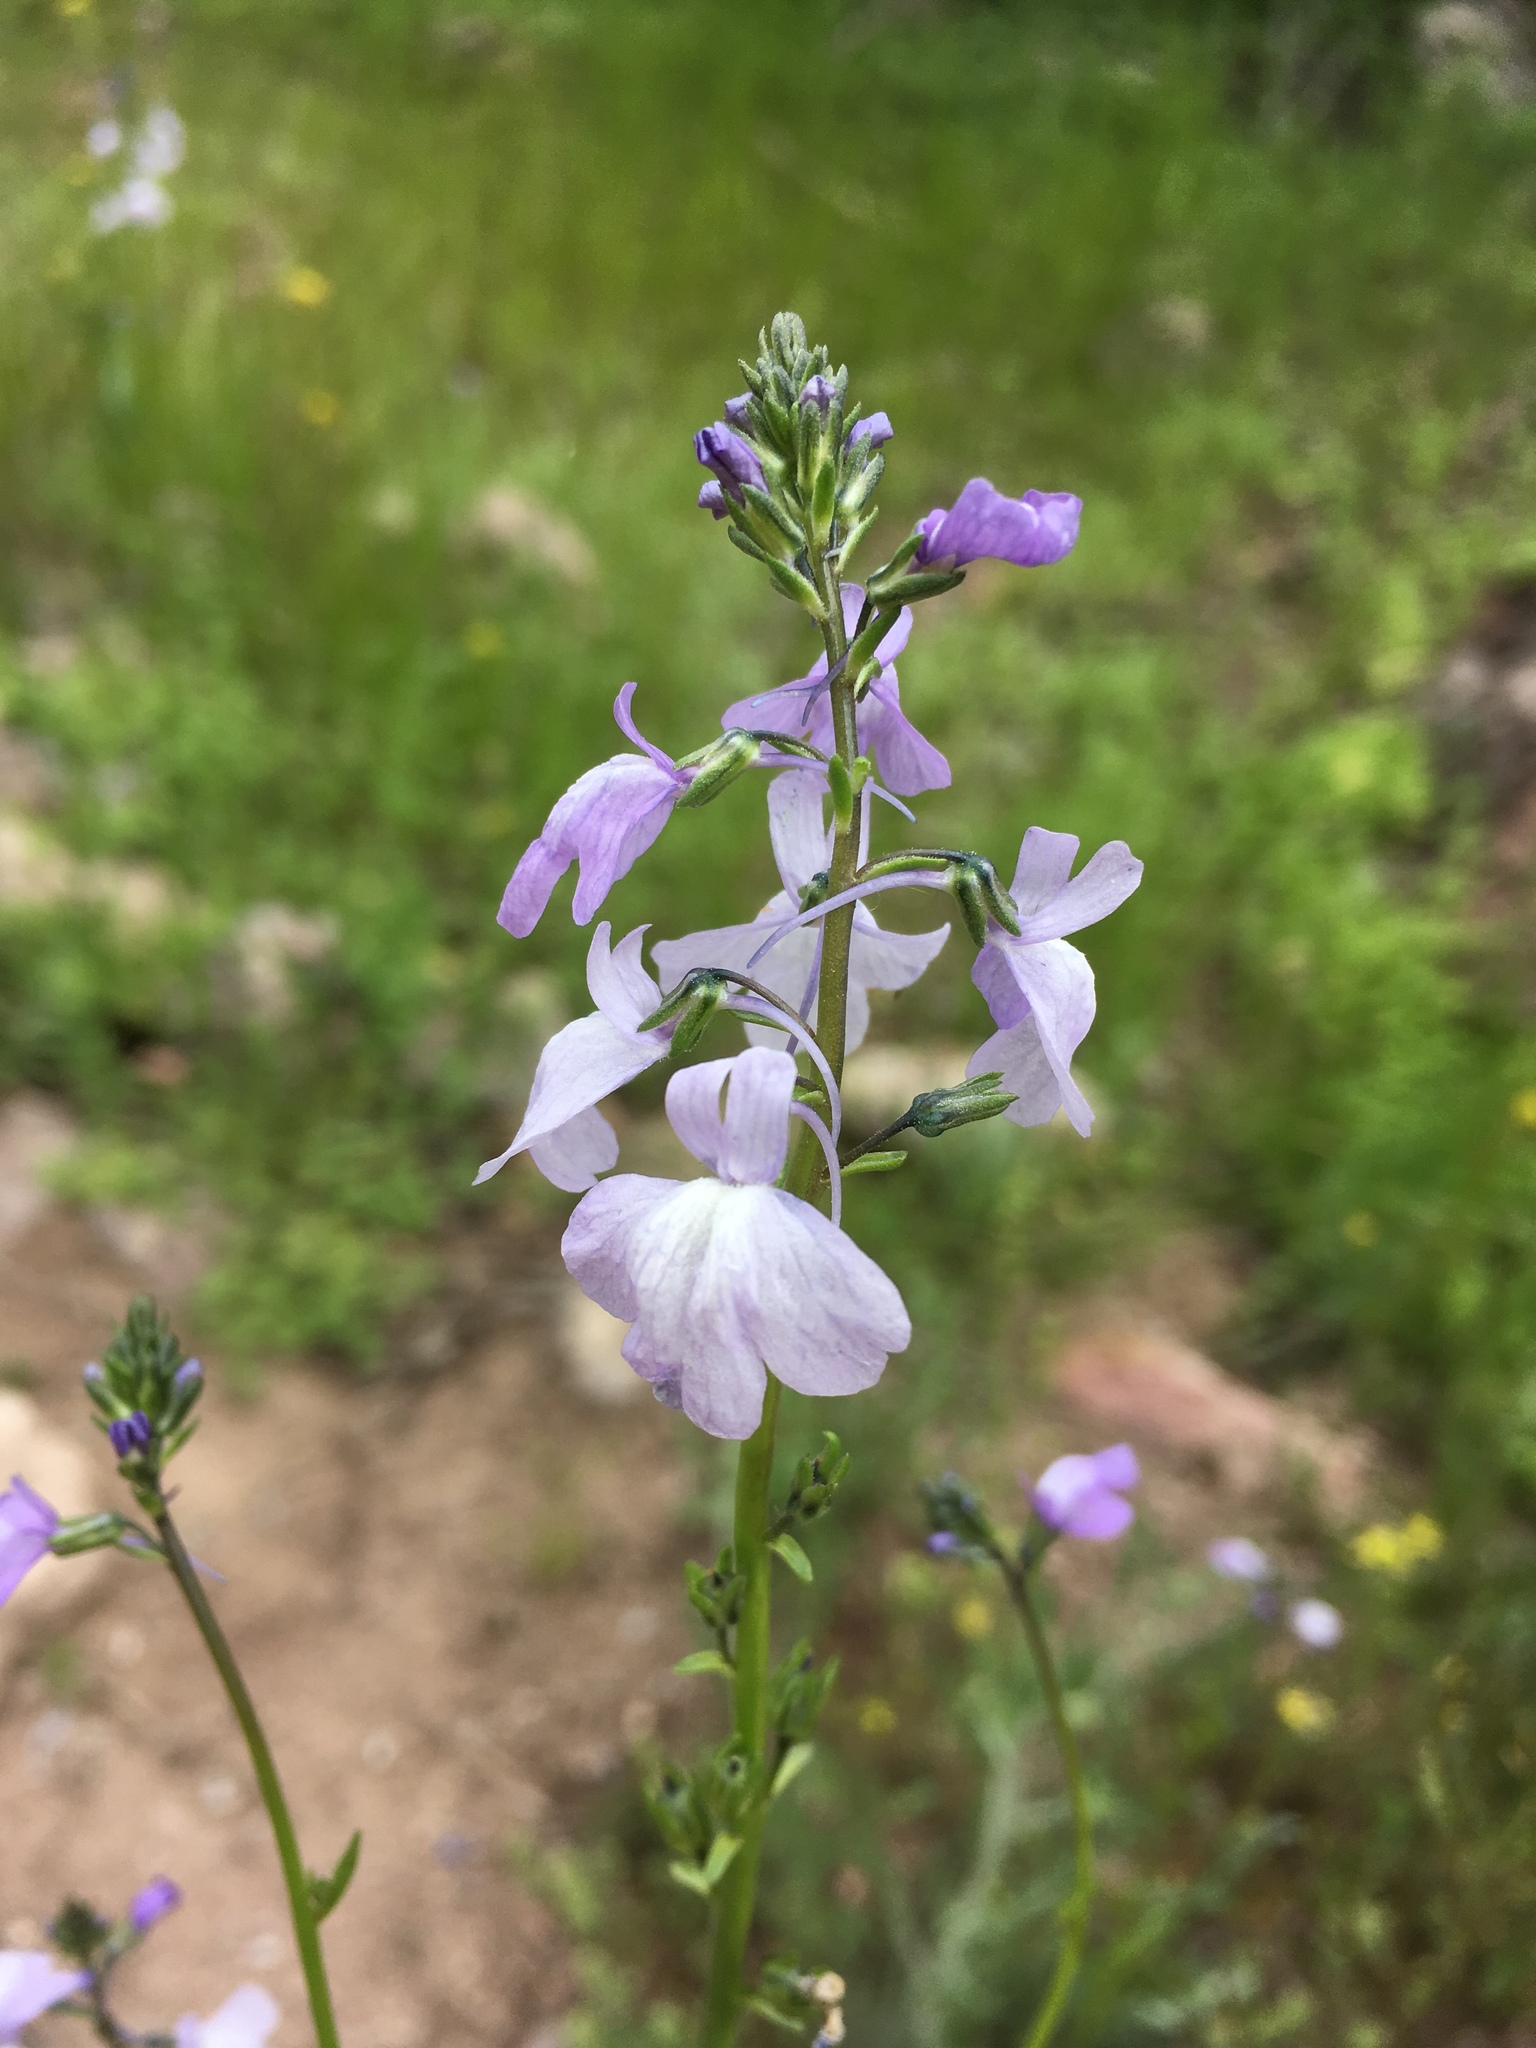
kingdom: Plantae
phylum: Tracheophyta
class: Magnoliopsida
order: Lamiales
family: Plantaginaceae
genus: Nuttallanthus
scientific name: Nuttallanthus texanus
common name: Texas toadflax
